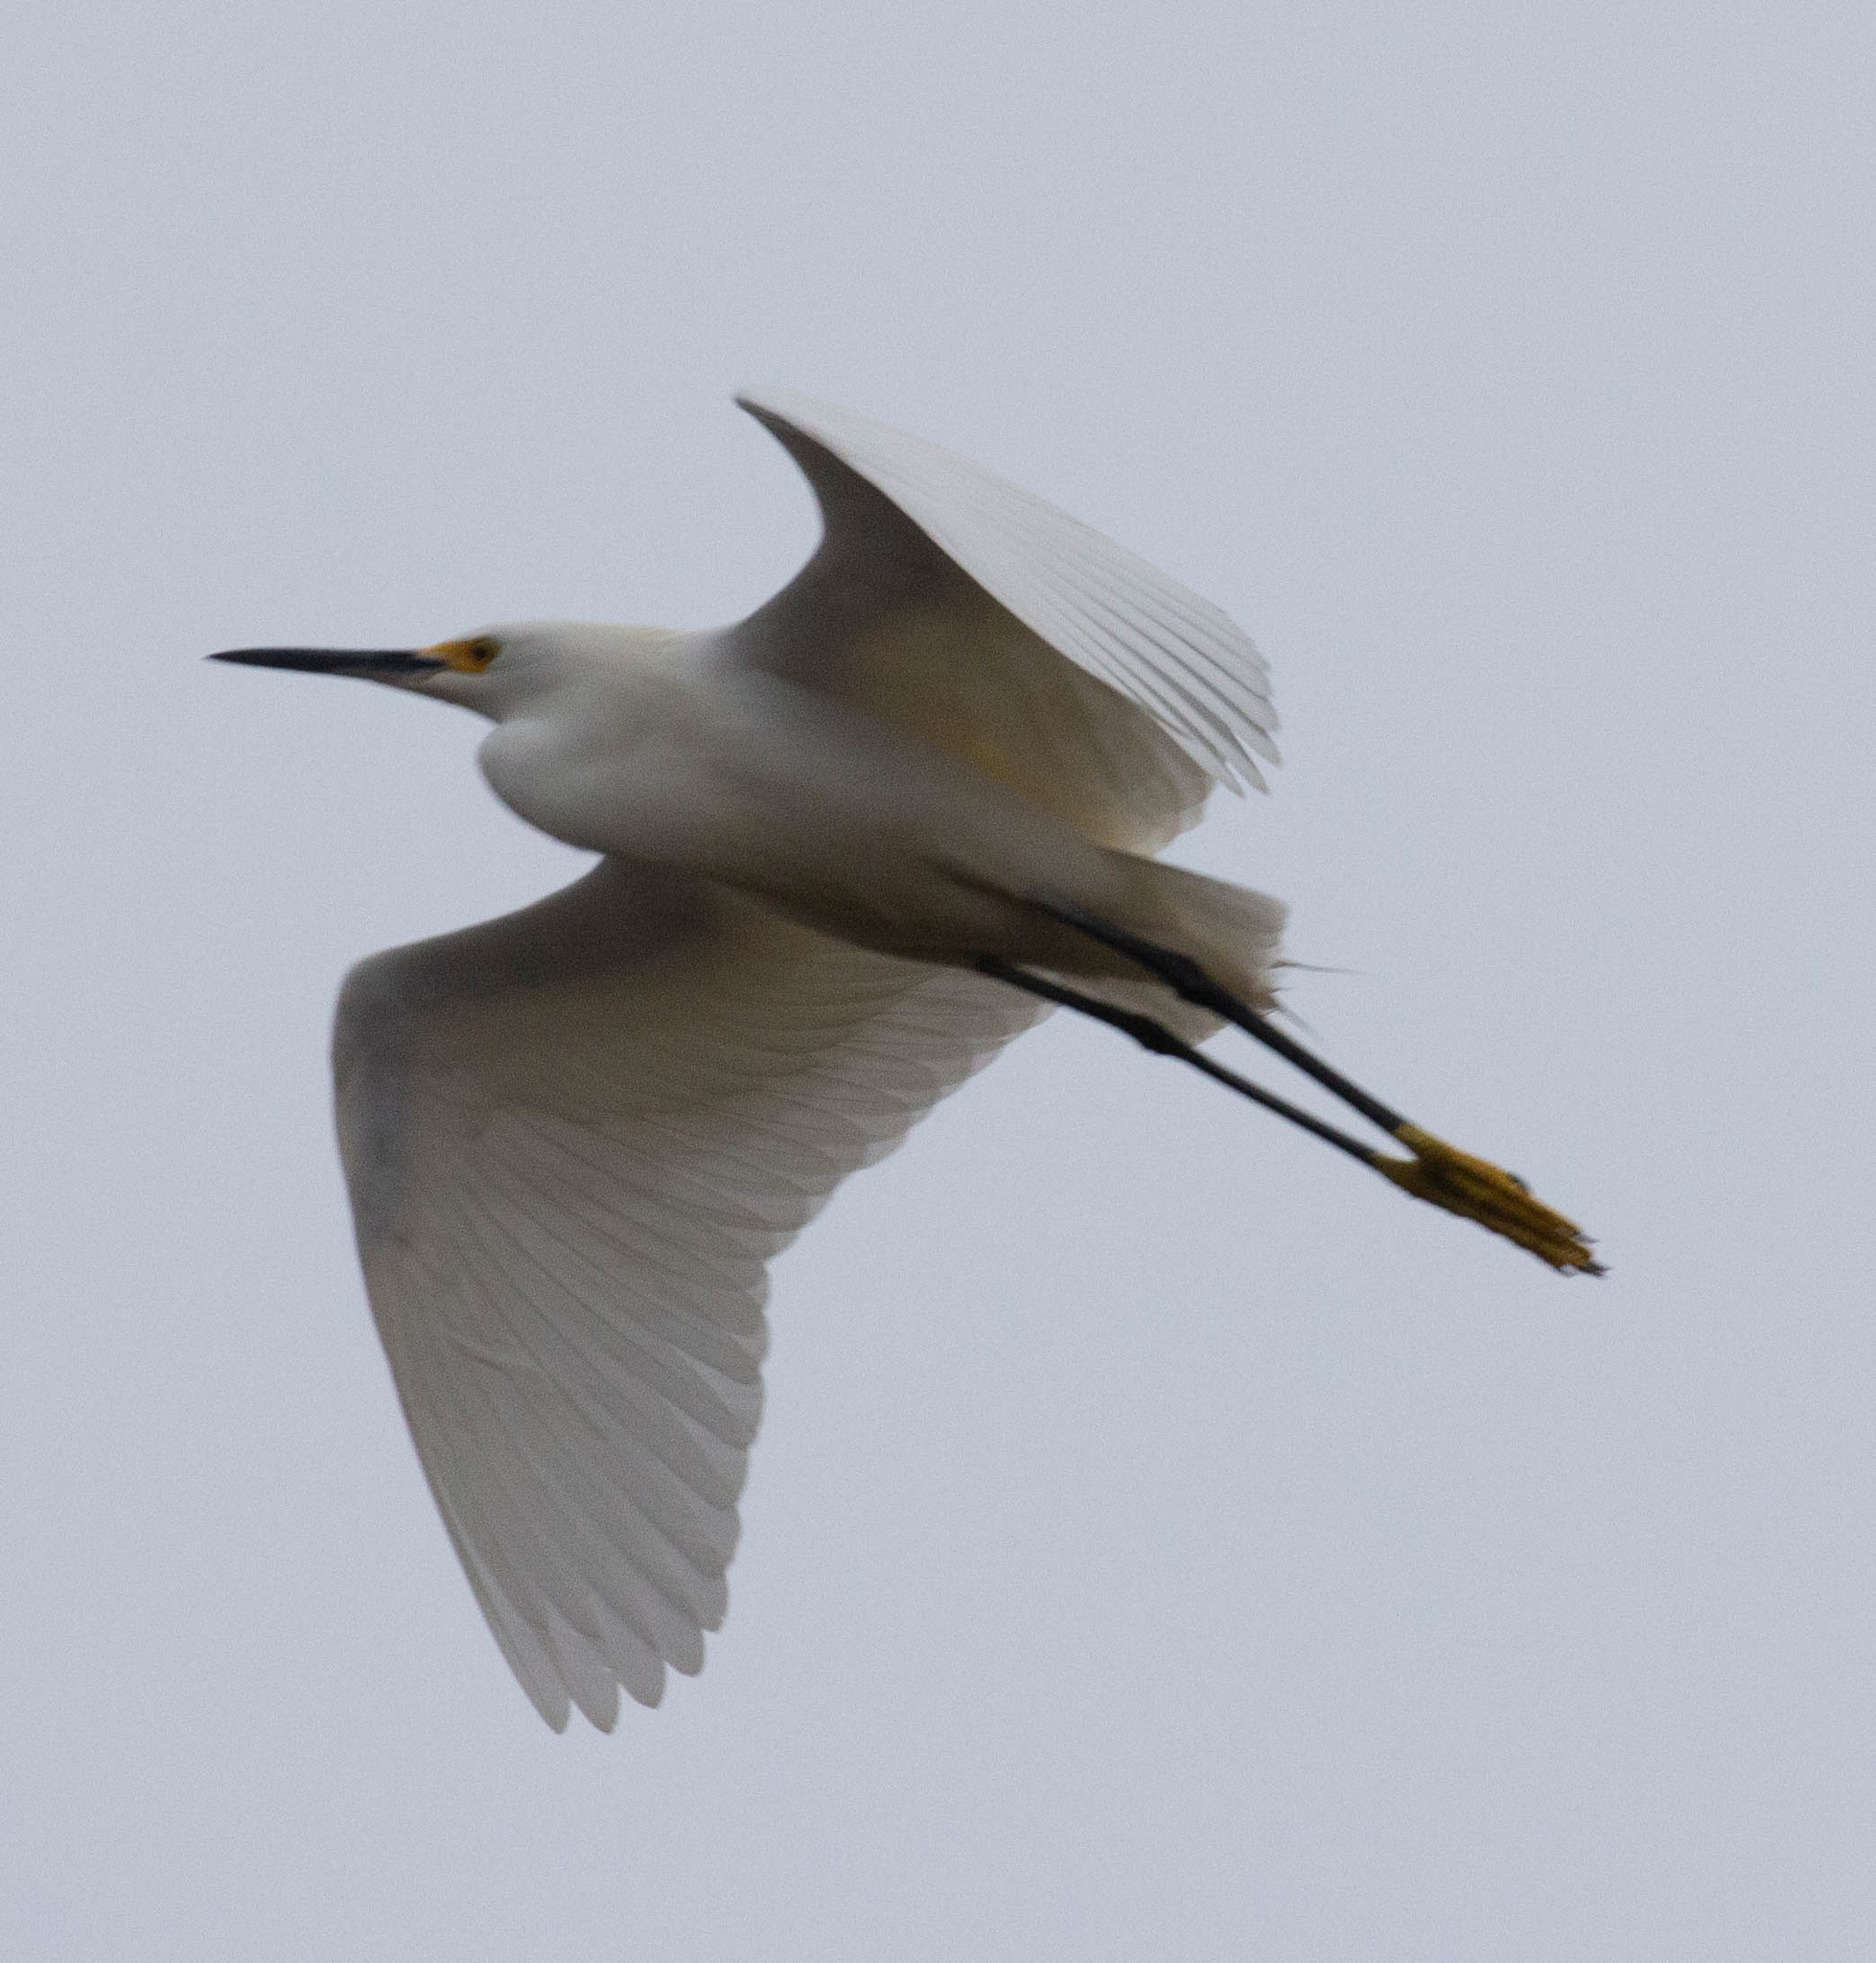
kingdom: Animalia
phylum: Chordata
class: Aves
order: Pelecaniformes
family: Ardeidae
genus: Egretta
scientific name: Egretta thula
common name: Snowy egret
